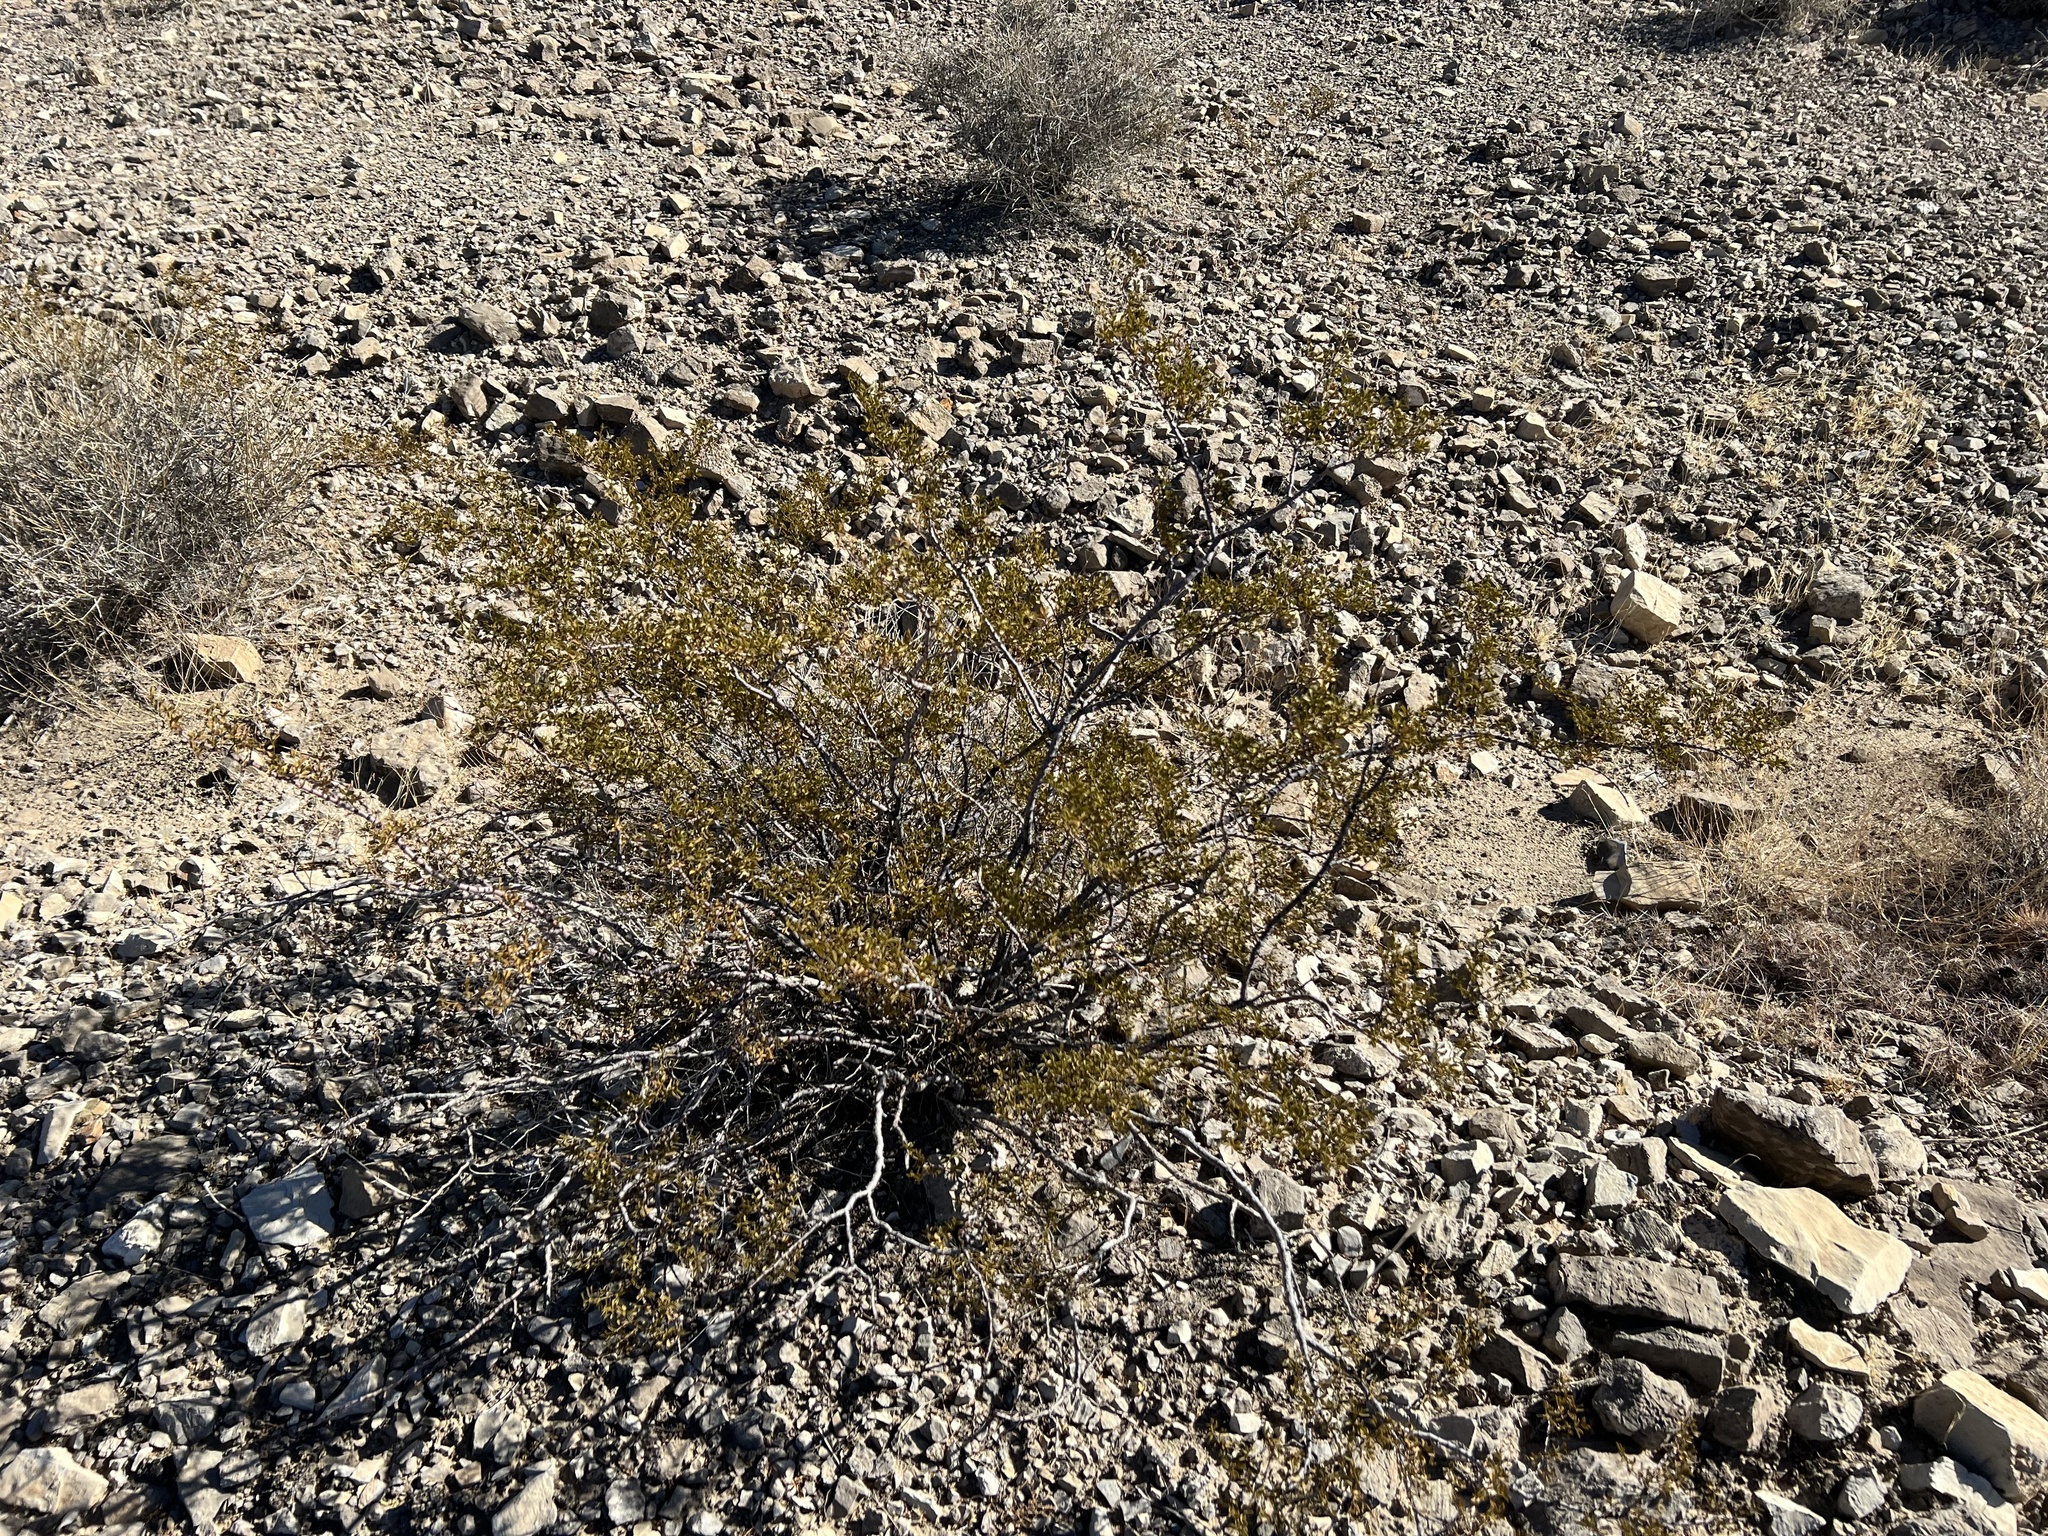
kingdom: Plantae
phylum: Tracheophyta
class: Magnoliopsida
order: Zygophyllales
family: Zygophyllaceae
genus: Larrea
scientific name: Larrea tridentata
